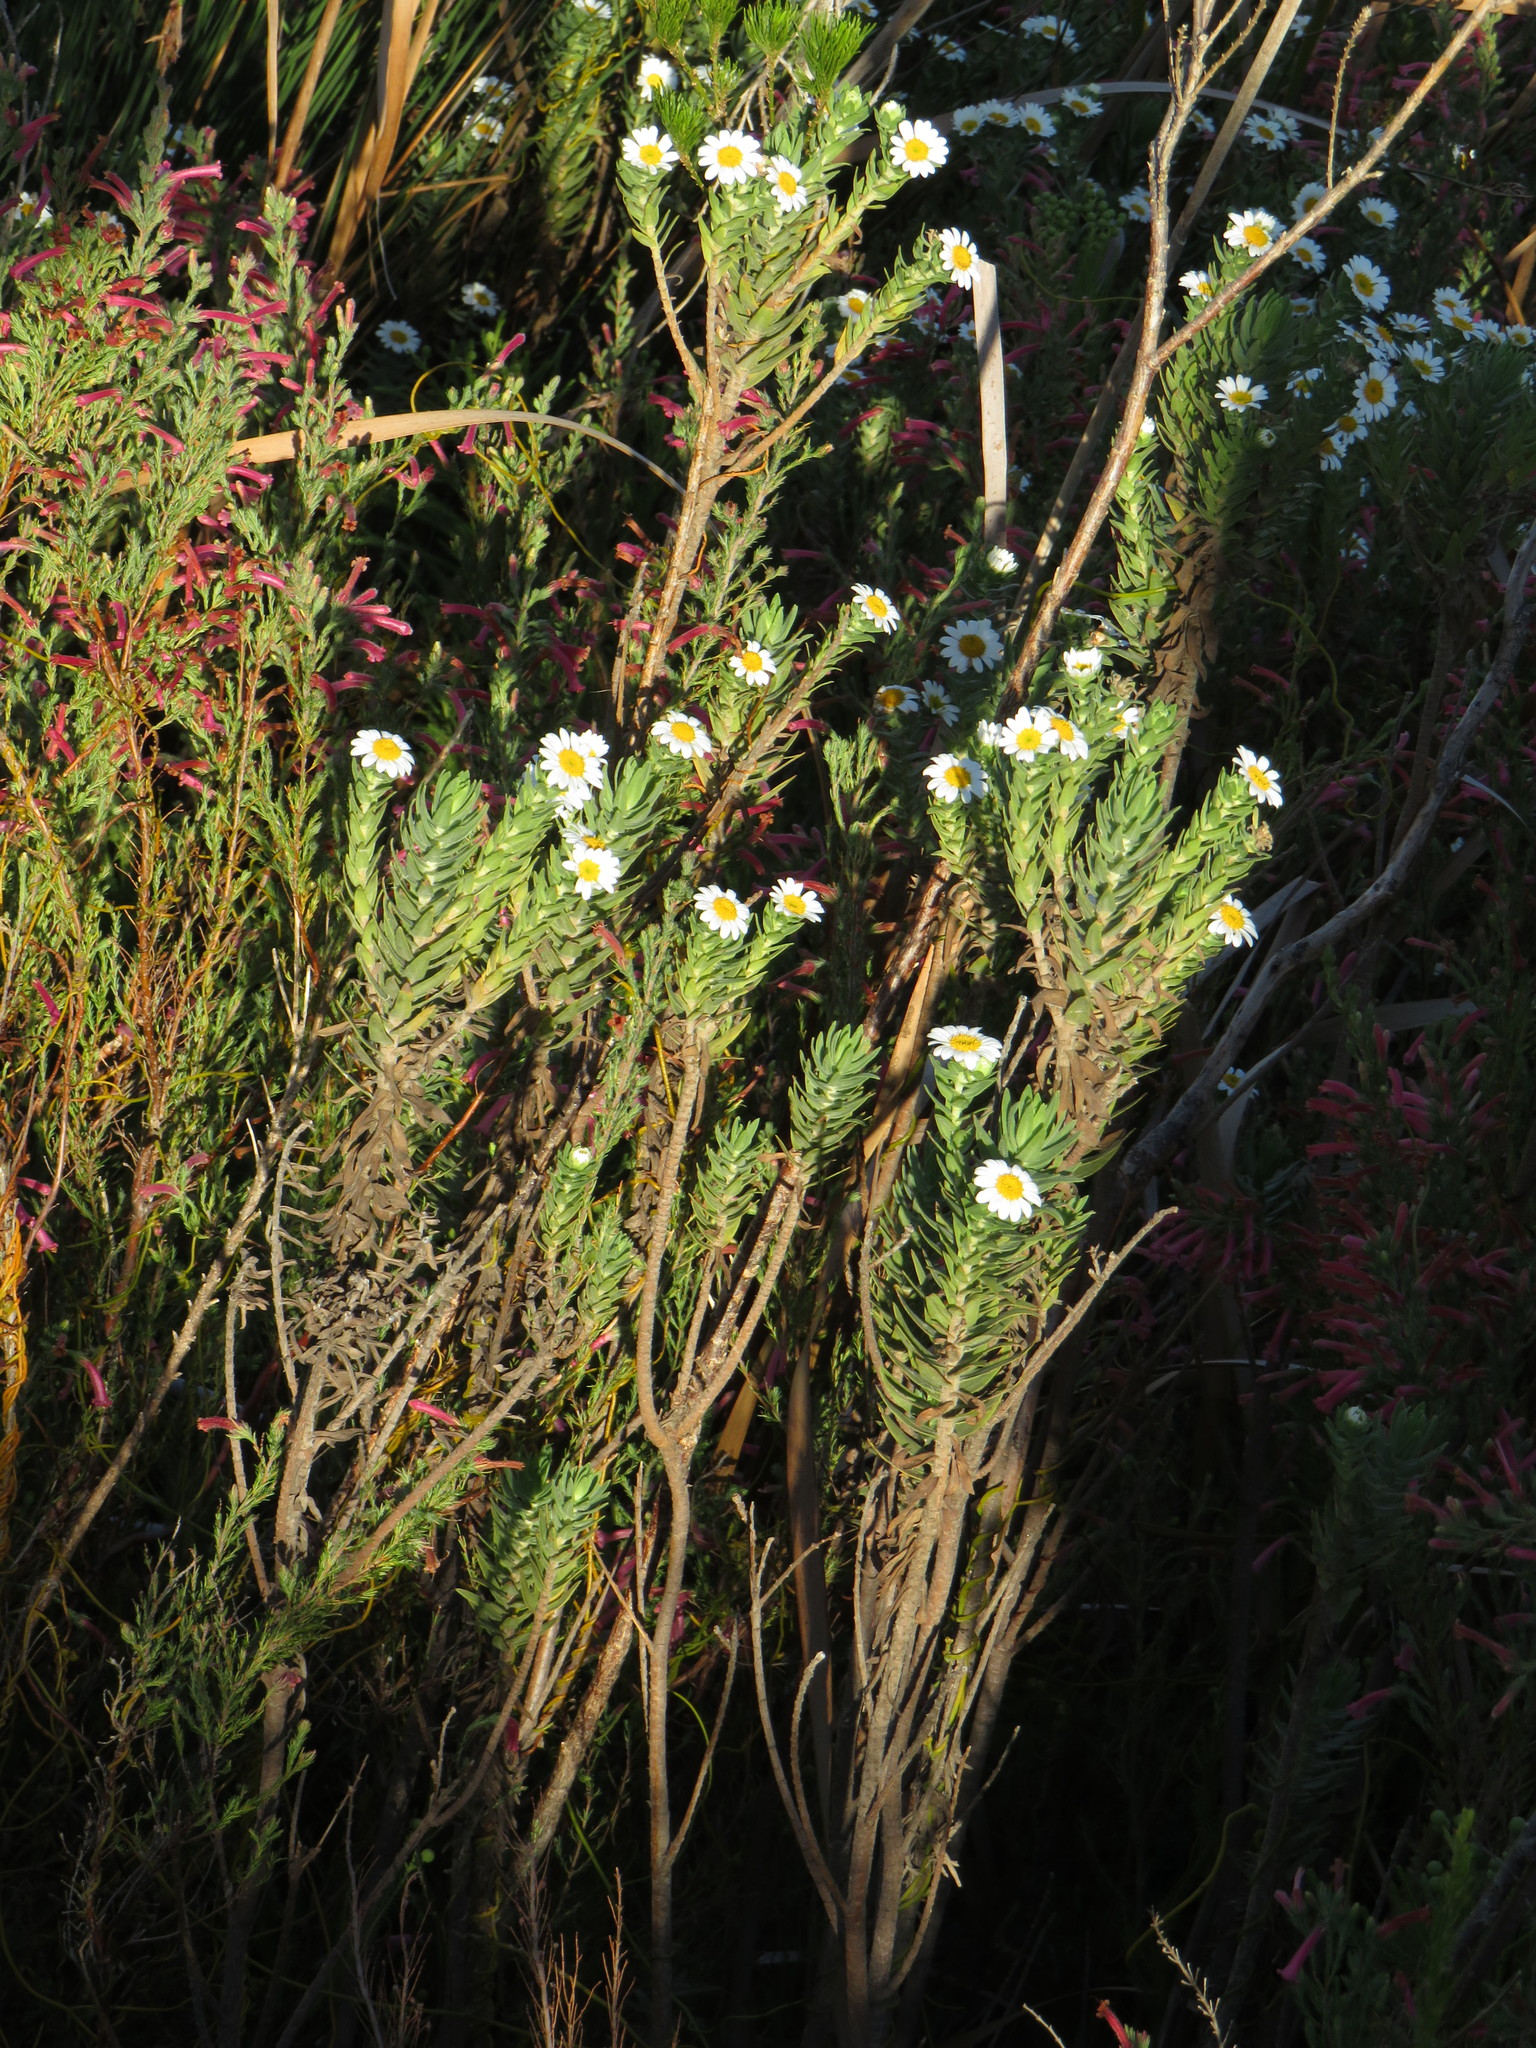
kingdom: Plantae
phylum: Tracheophyta
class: Magnoliopsida
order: Asterales
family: Asteraceae
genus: Osmitopsis
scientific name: Osmitopsis asteriscoides
